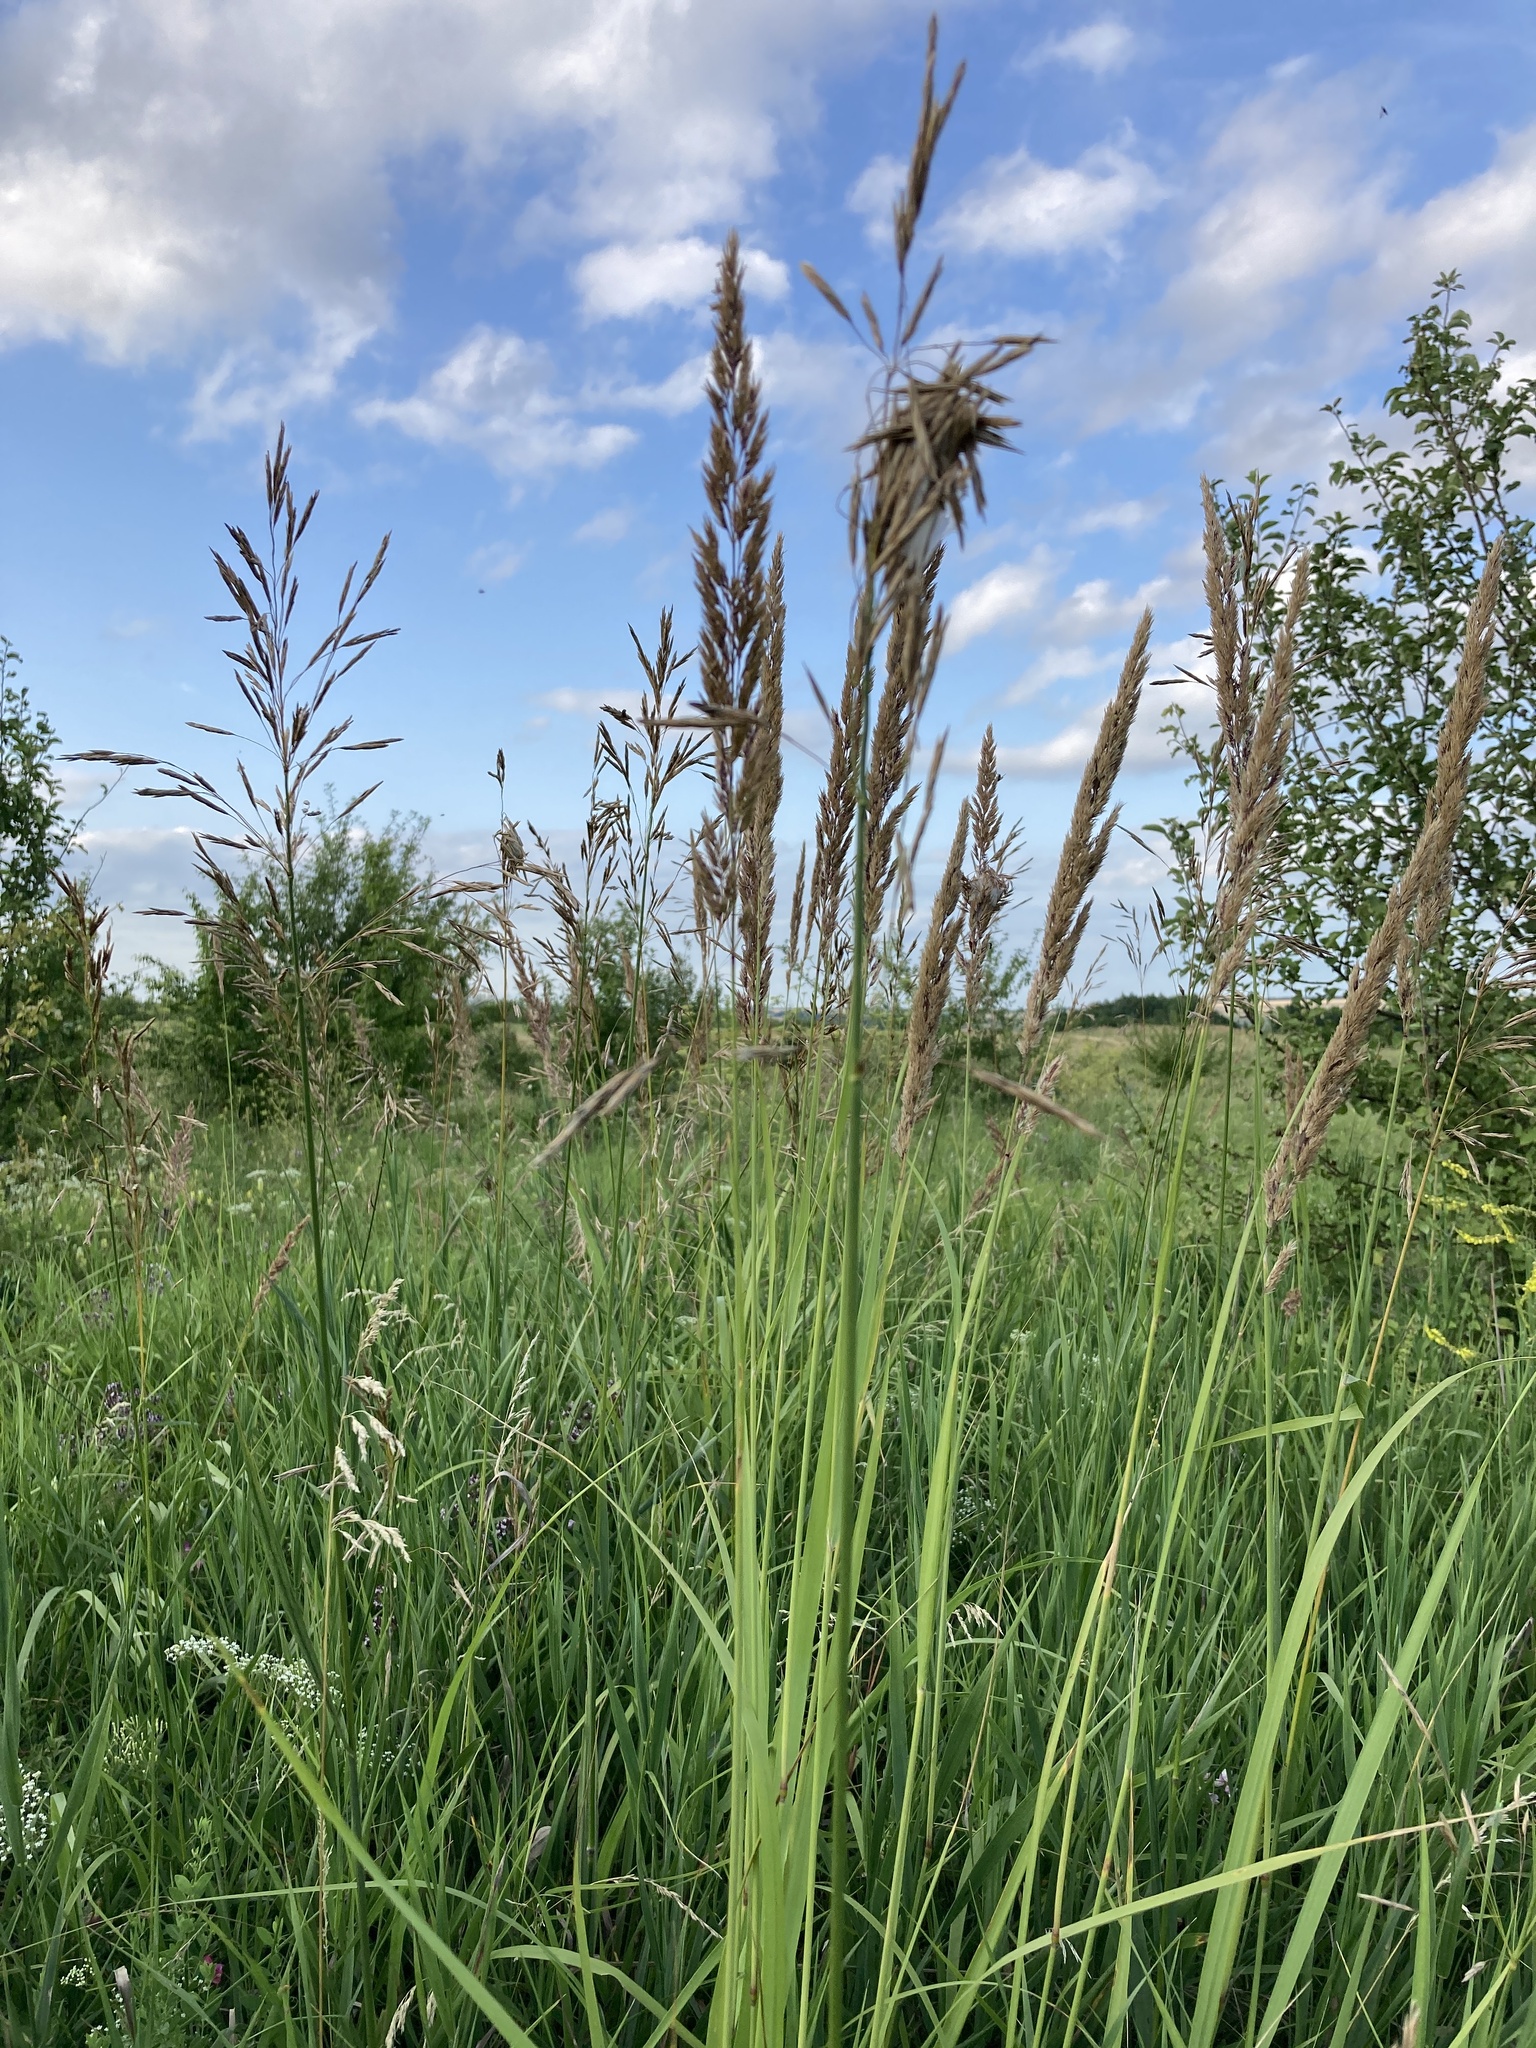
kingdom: Plantae
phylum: Tracheophyta
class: Liliopsida
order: Poales
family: Poaceae
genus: Calamagrostis
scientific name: Calamagrostis epigejos
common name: Wood small-reed
